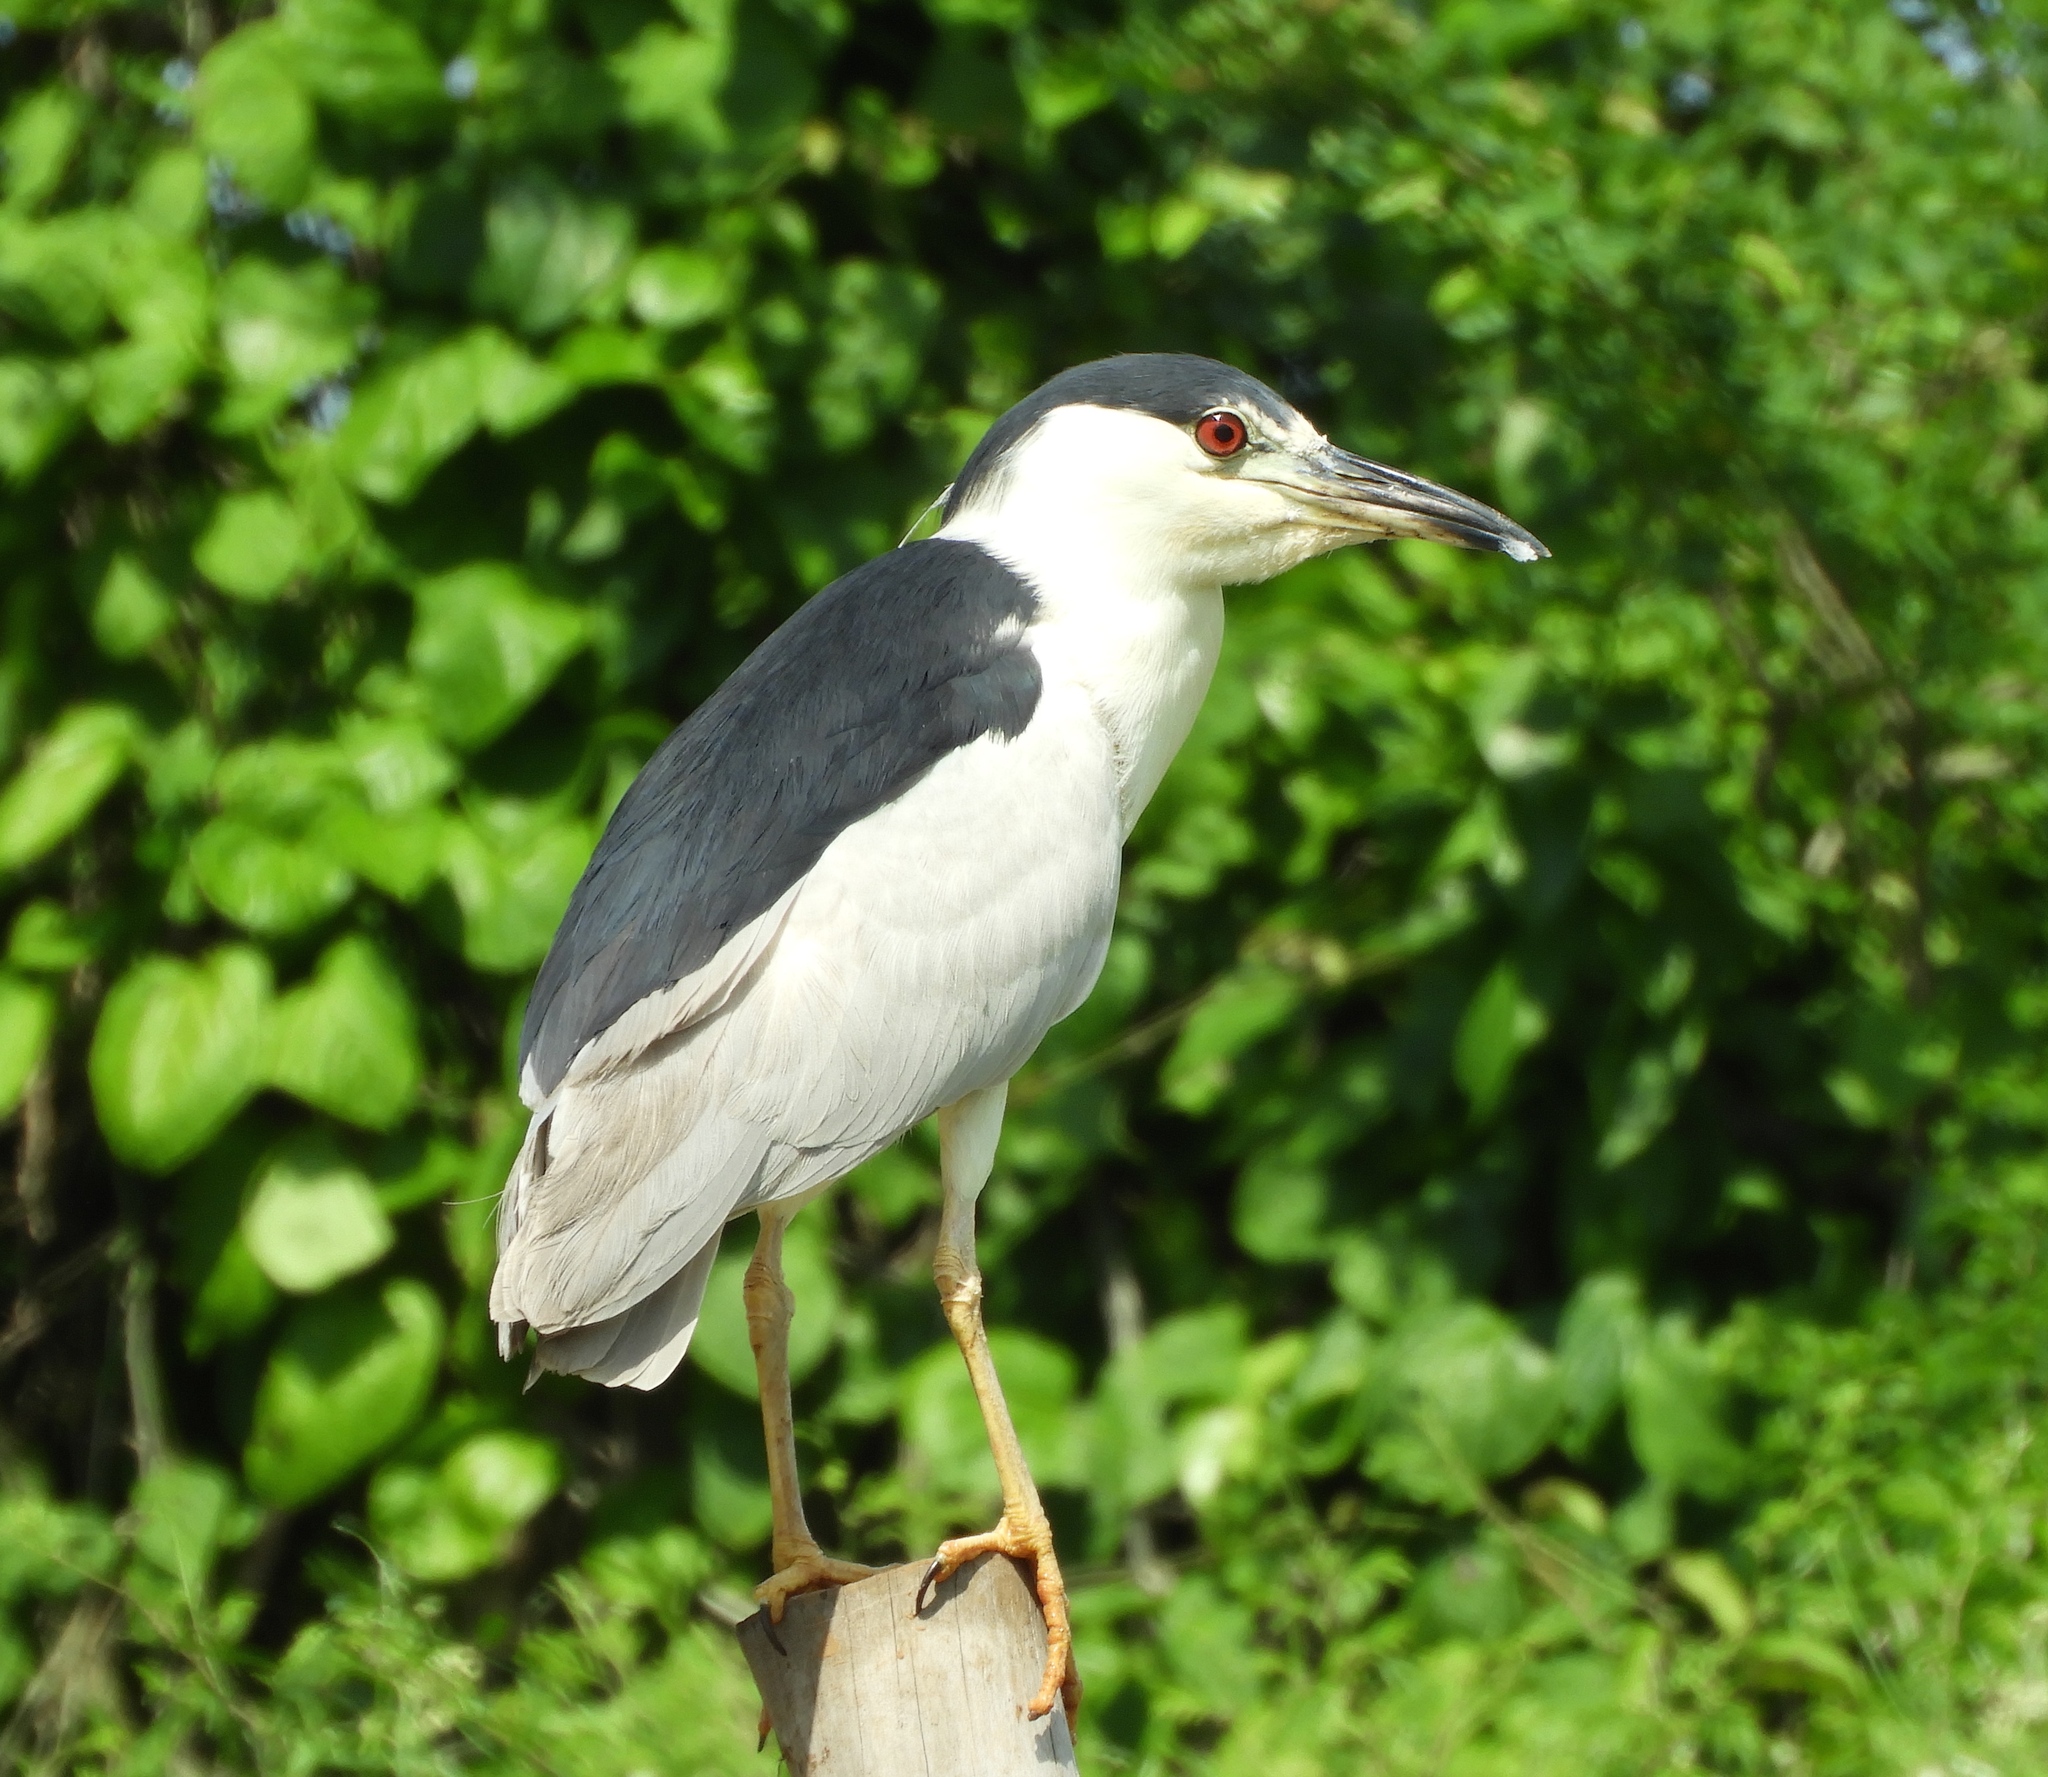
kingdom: Animalia
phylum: Chordata
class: Aves
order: Pelecaniformes
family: Ardeidae
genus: Nycticorax
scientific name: Nycticorax nycticorax
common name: Black-crowned night heron
